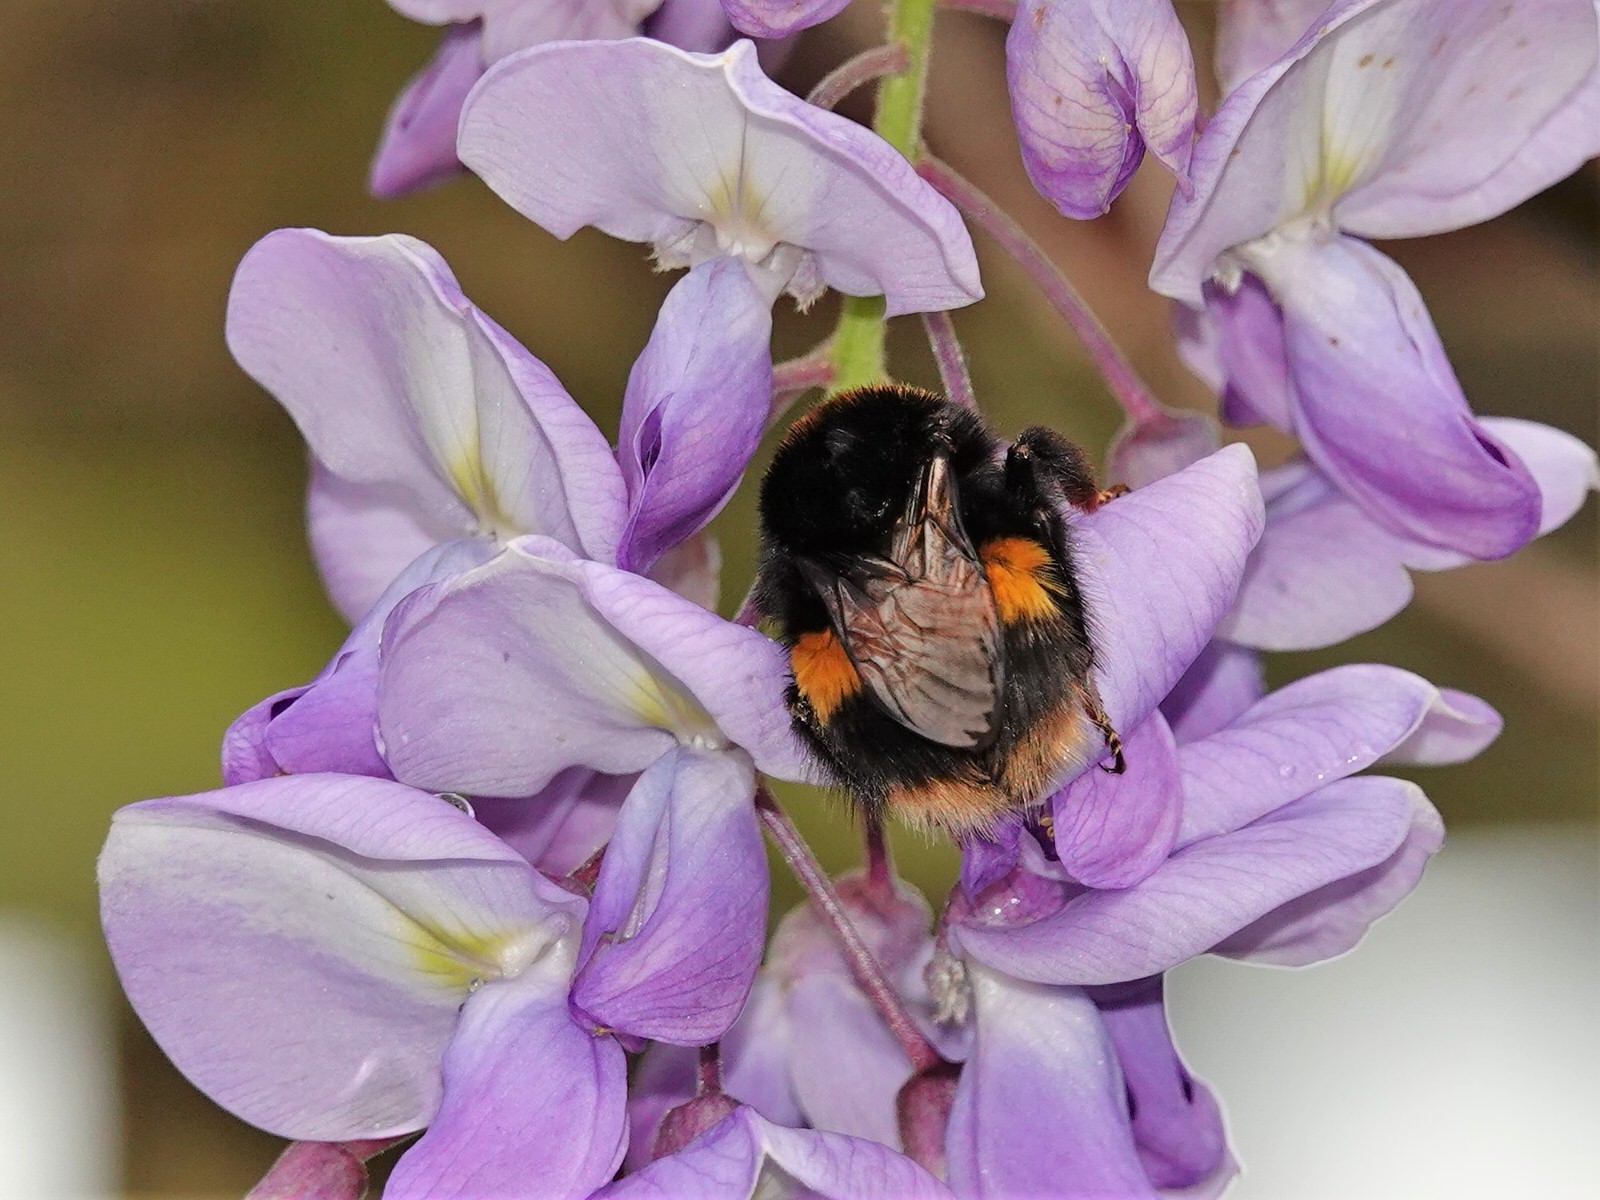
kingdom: Animalia
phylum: Arthropoda
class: Insecta
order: Hymenoptera
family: Apidae
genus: Bombus
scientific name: Bombus terrestris
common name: Buff-tailed bumblebee
